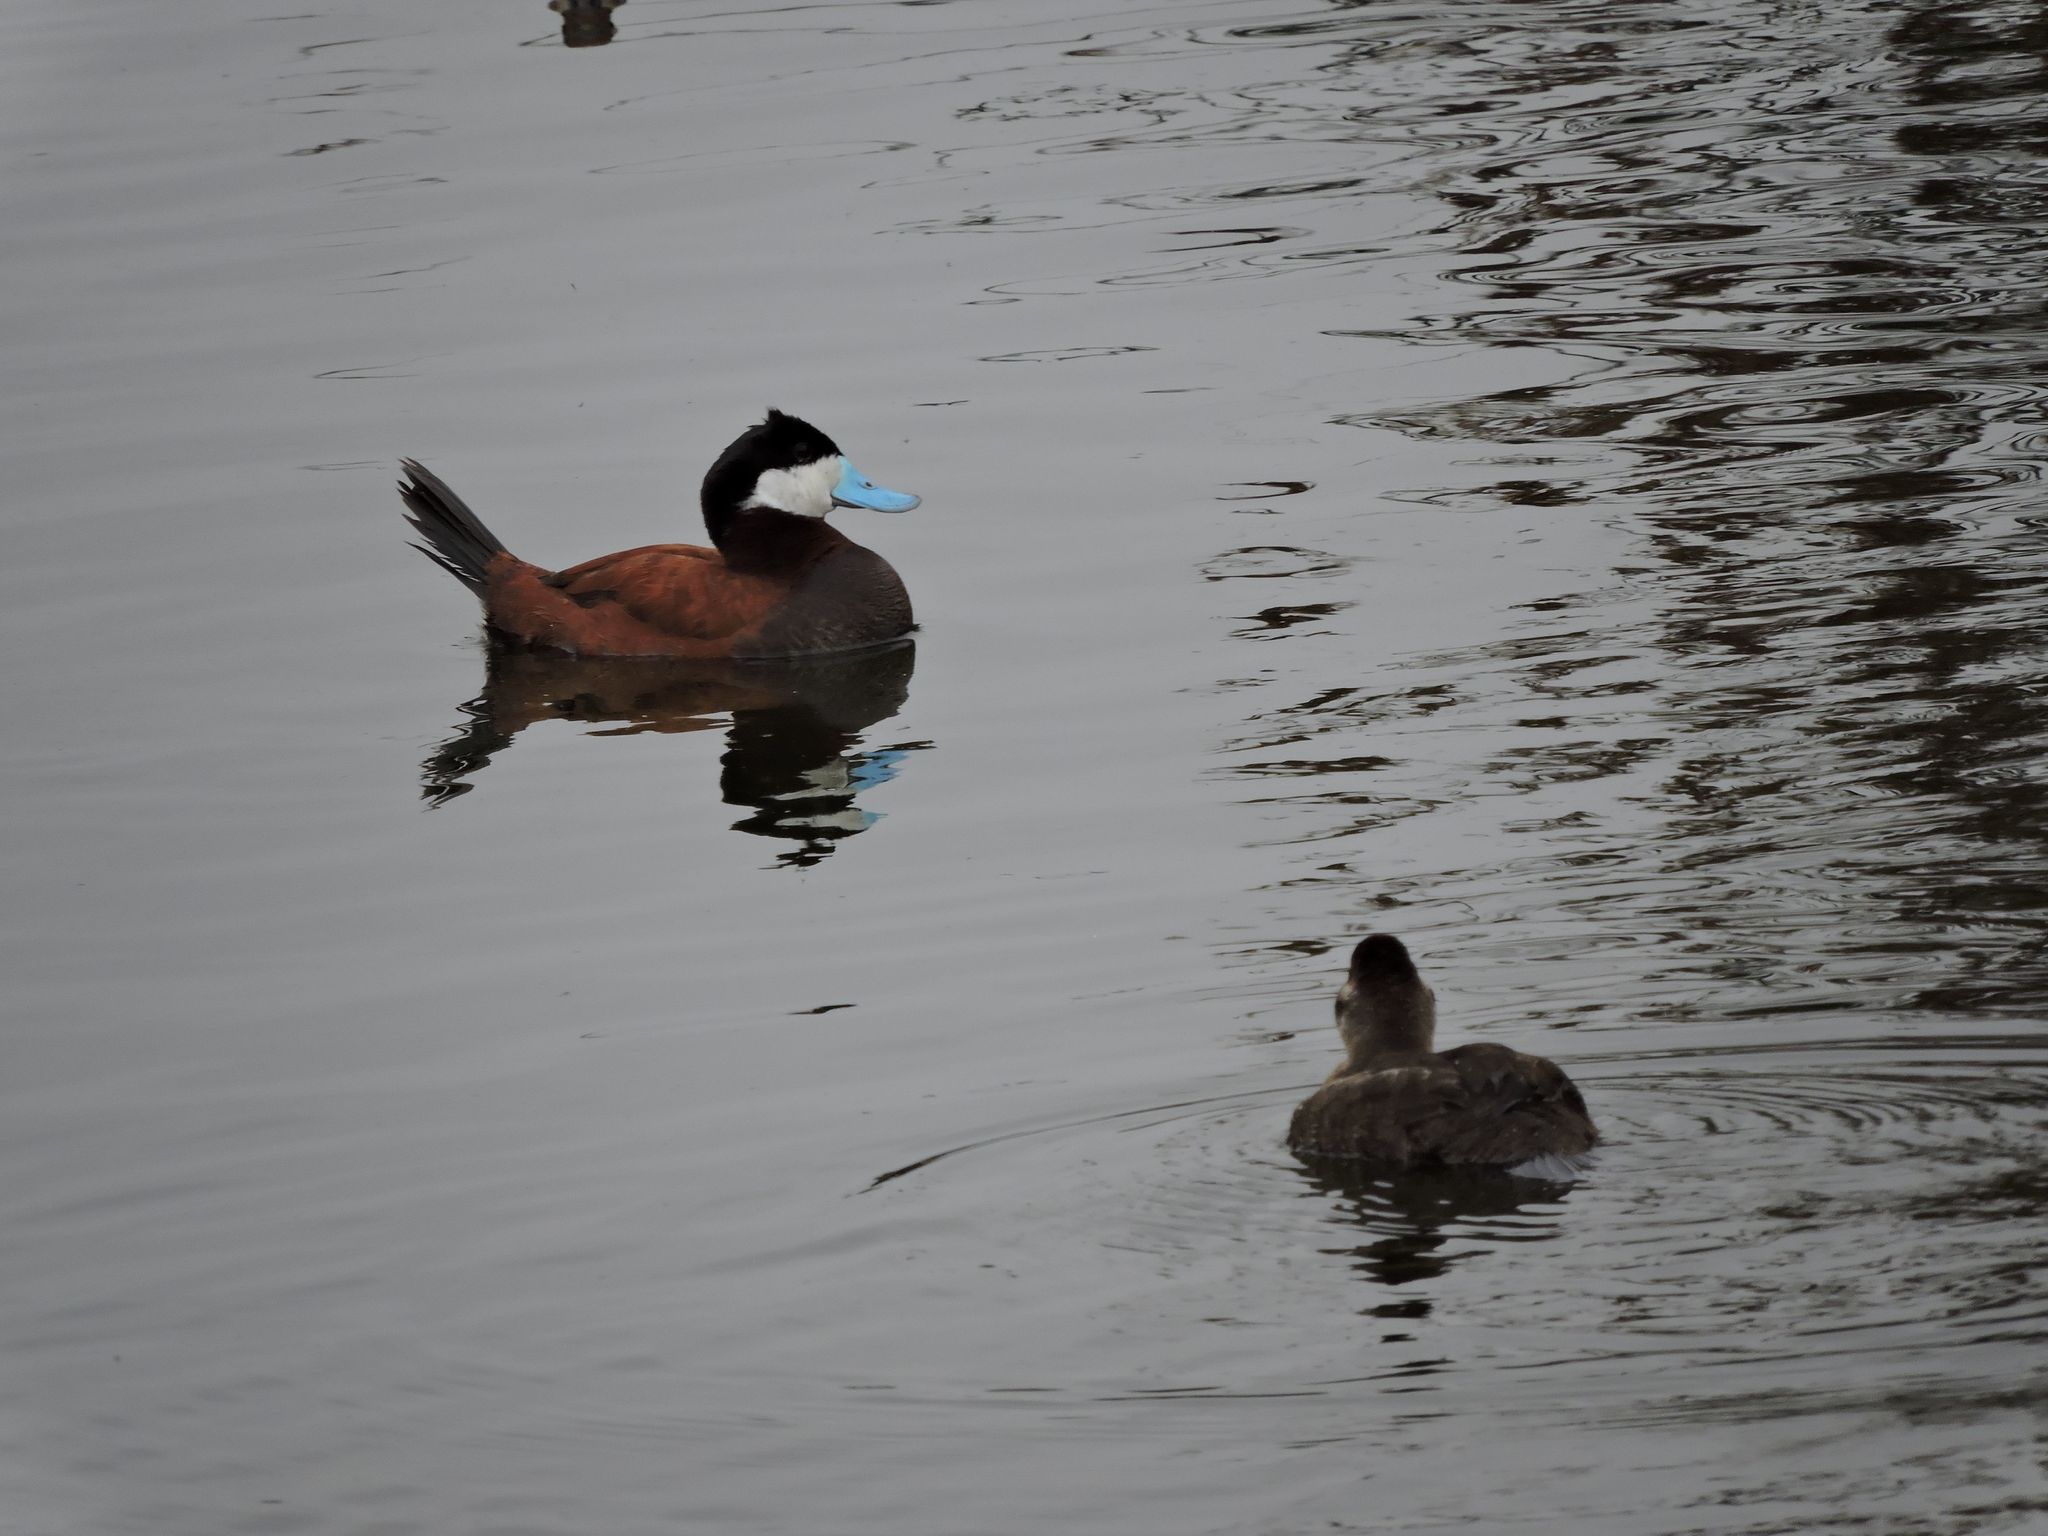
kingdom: Animalia
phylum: Chordata
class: Aves
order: Anseriformes
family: Anatidae
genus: Oxyura
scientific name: Oxyura jamaicensis
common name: Ruddy duck
